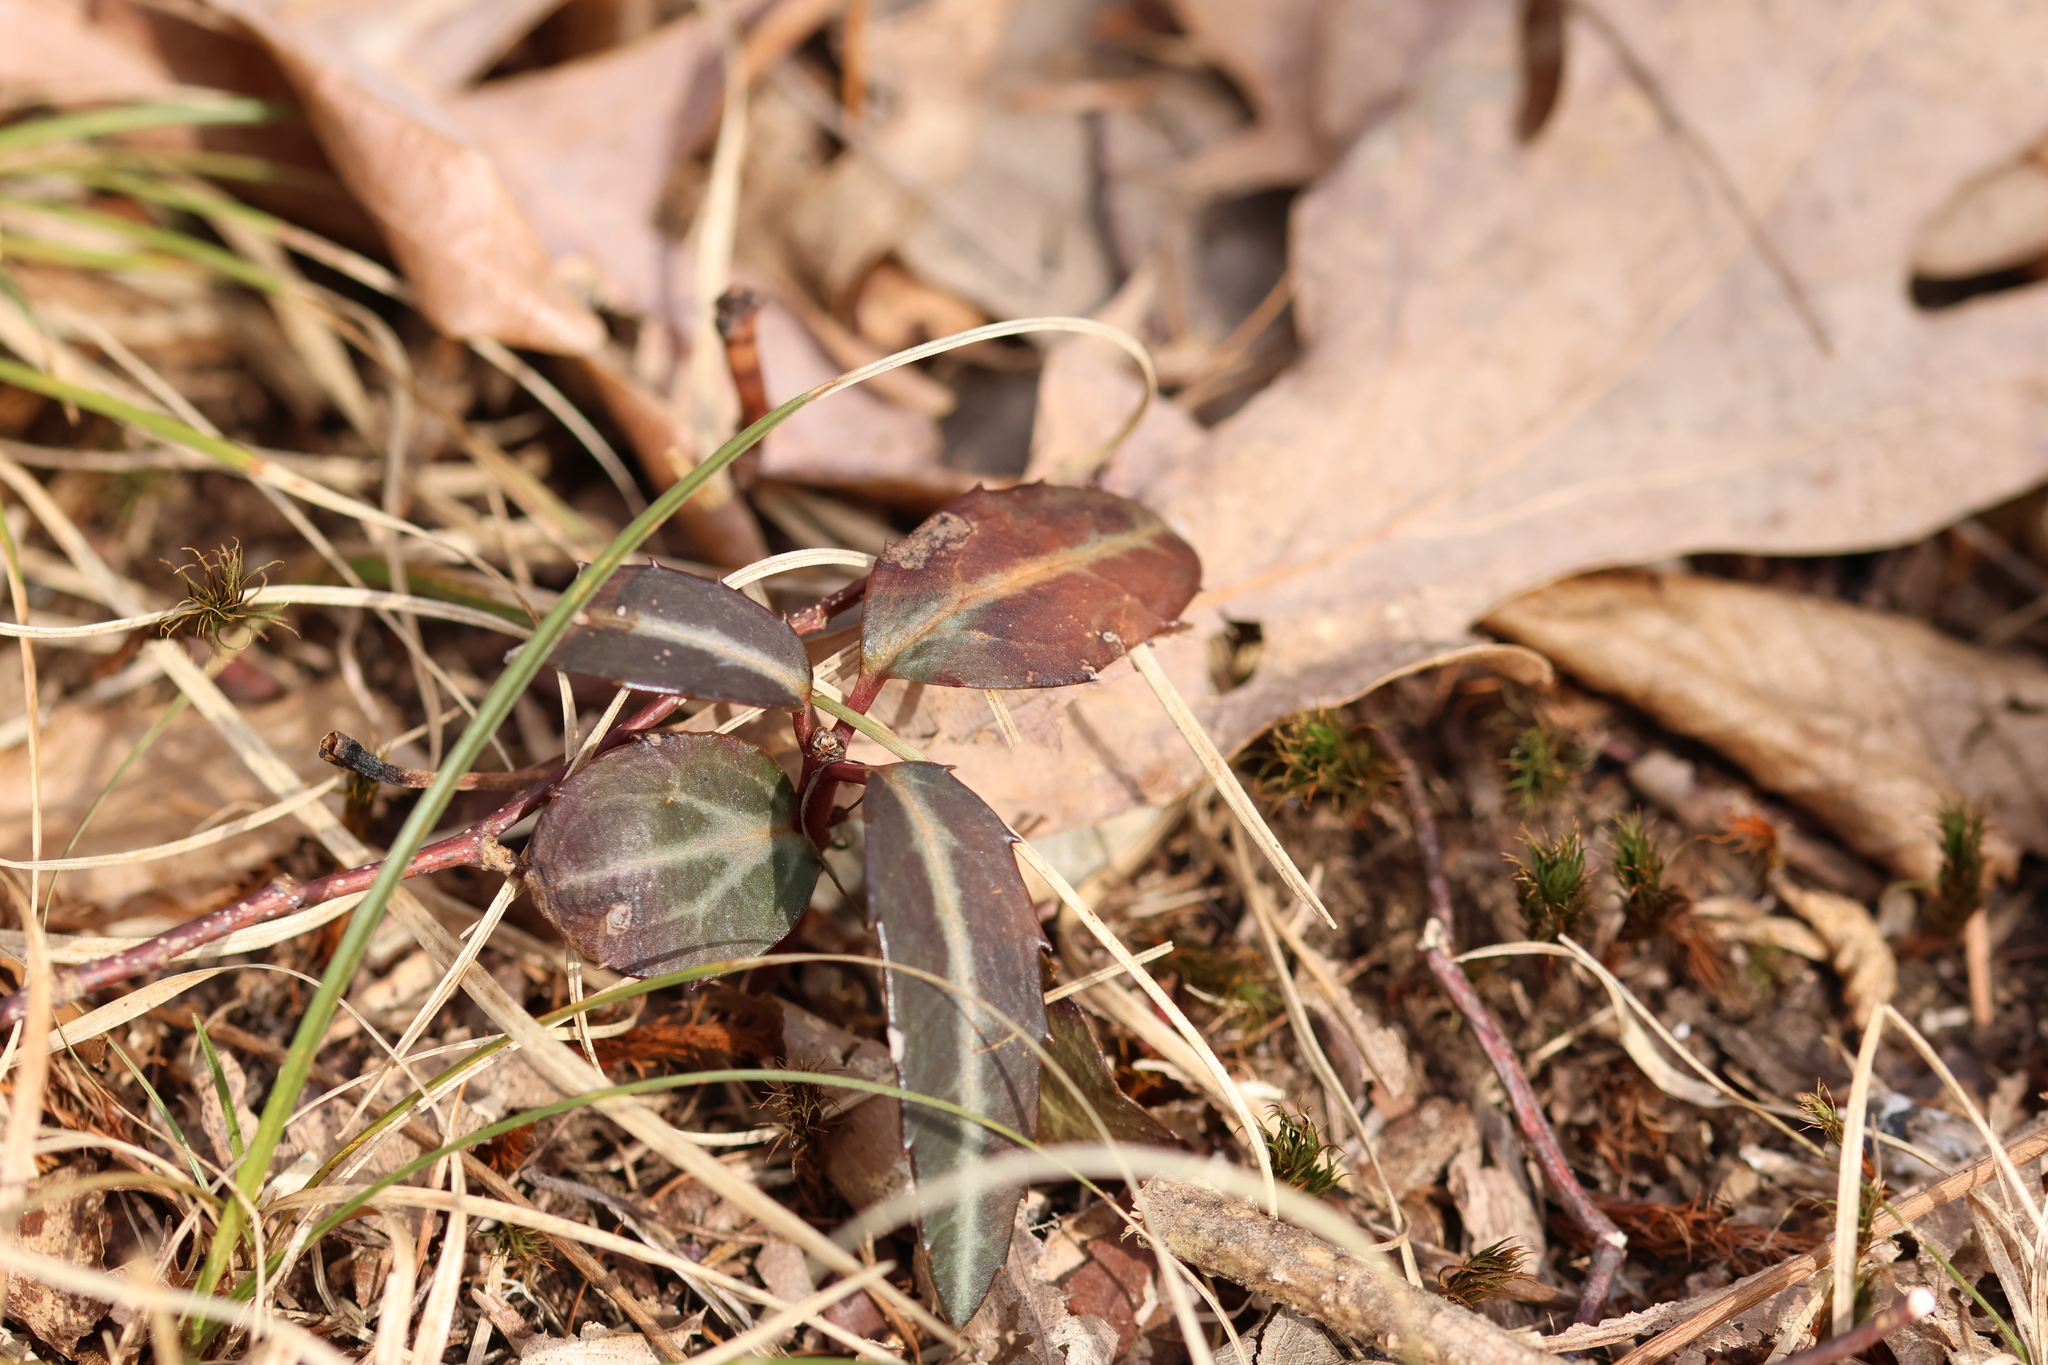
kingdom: Plantae
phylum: Tracheophyta
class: Magnoliopsida
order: Ericales
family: Ericaceae
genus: Chimaphila
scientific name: Chimaphila maculata
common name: Spotted pipsissewa
